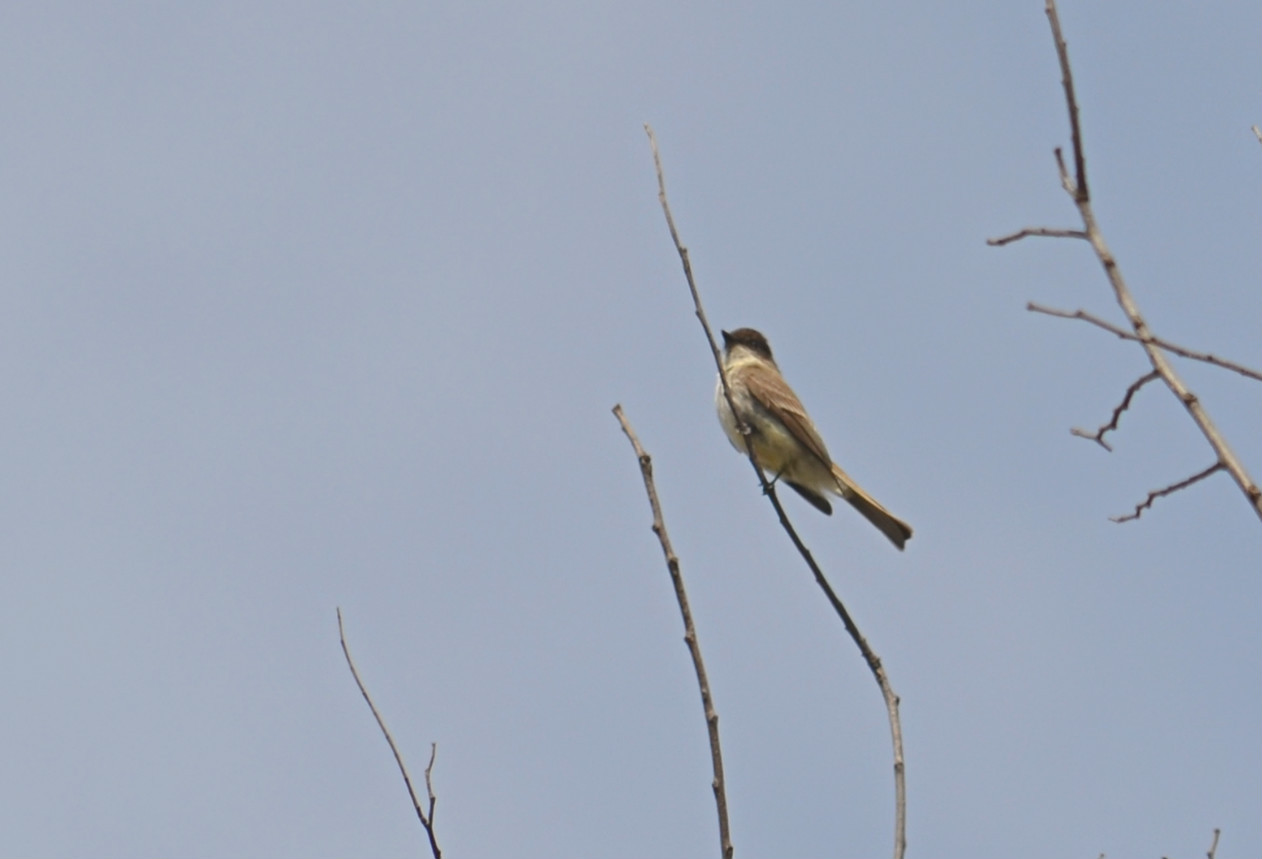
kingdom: Animalia
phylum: Chordata
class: Aves
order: Passeriformes
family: Tyrannidae
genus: Sayornis
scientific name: Sayornis phoebe
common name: Eastern phoebe
